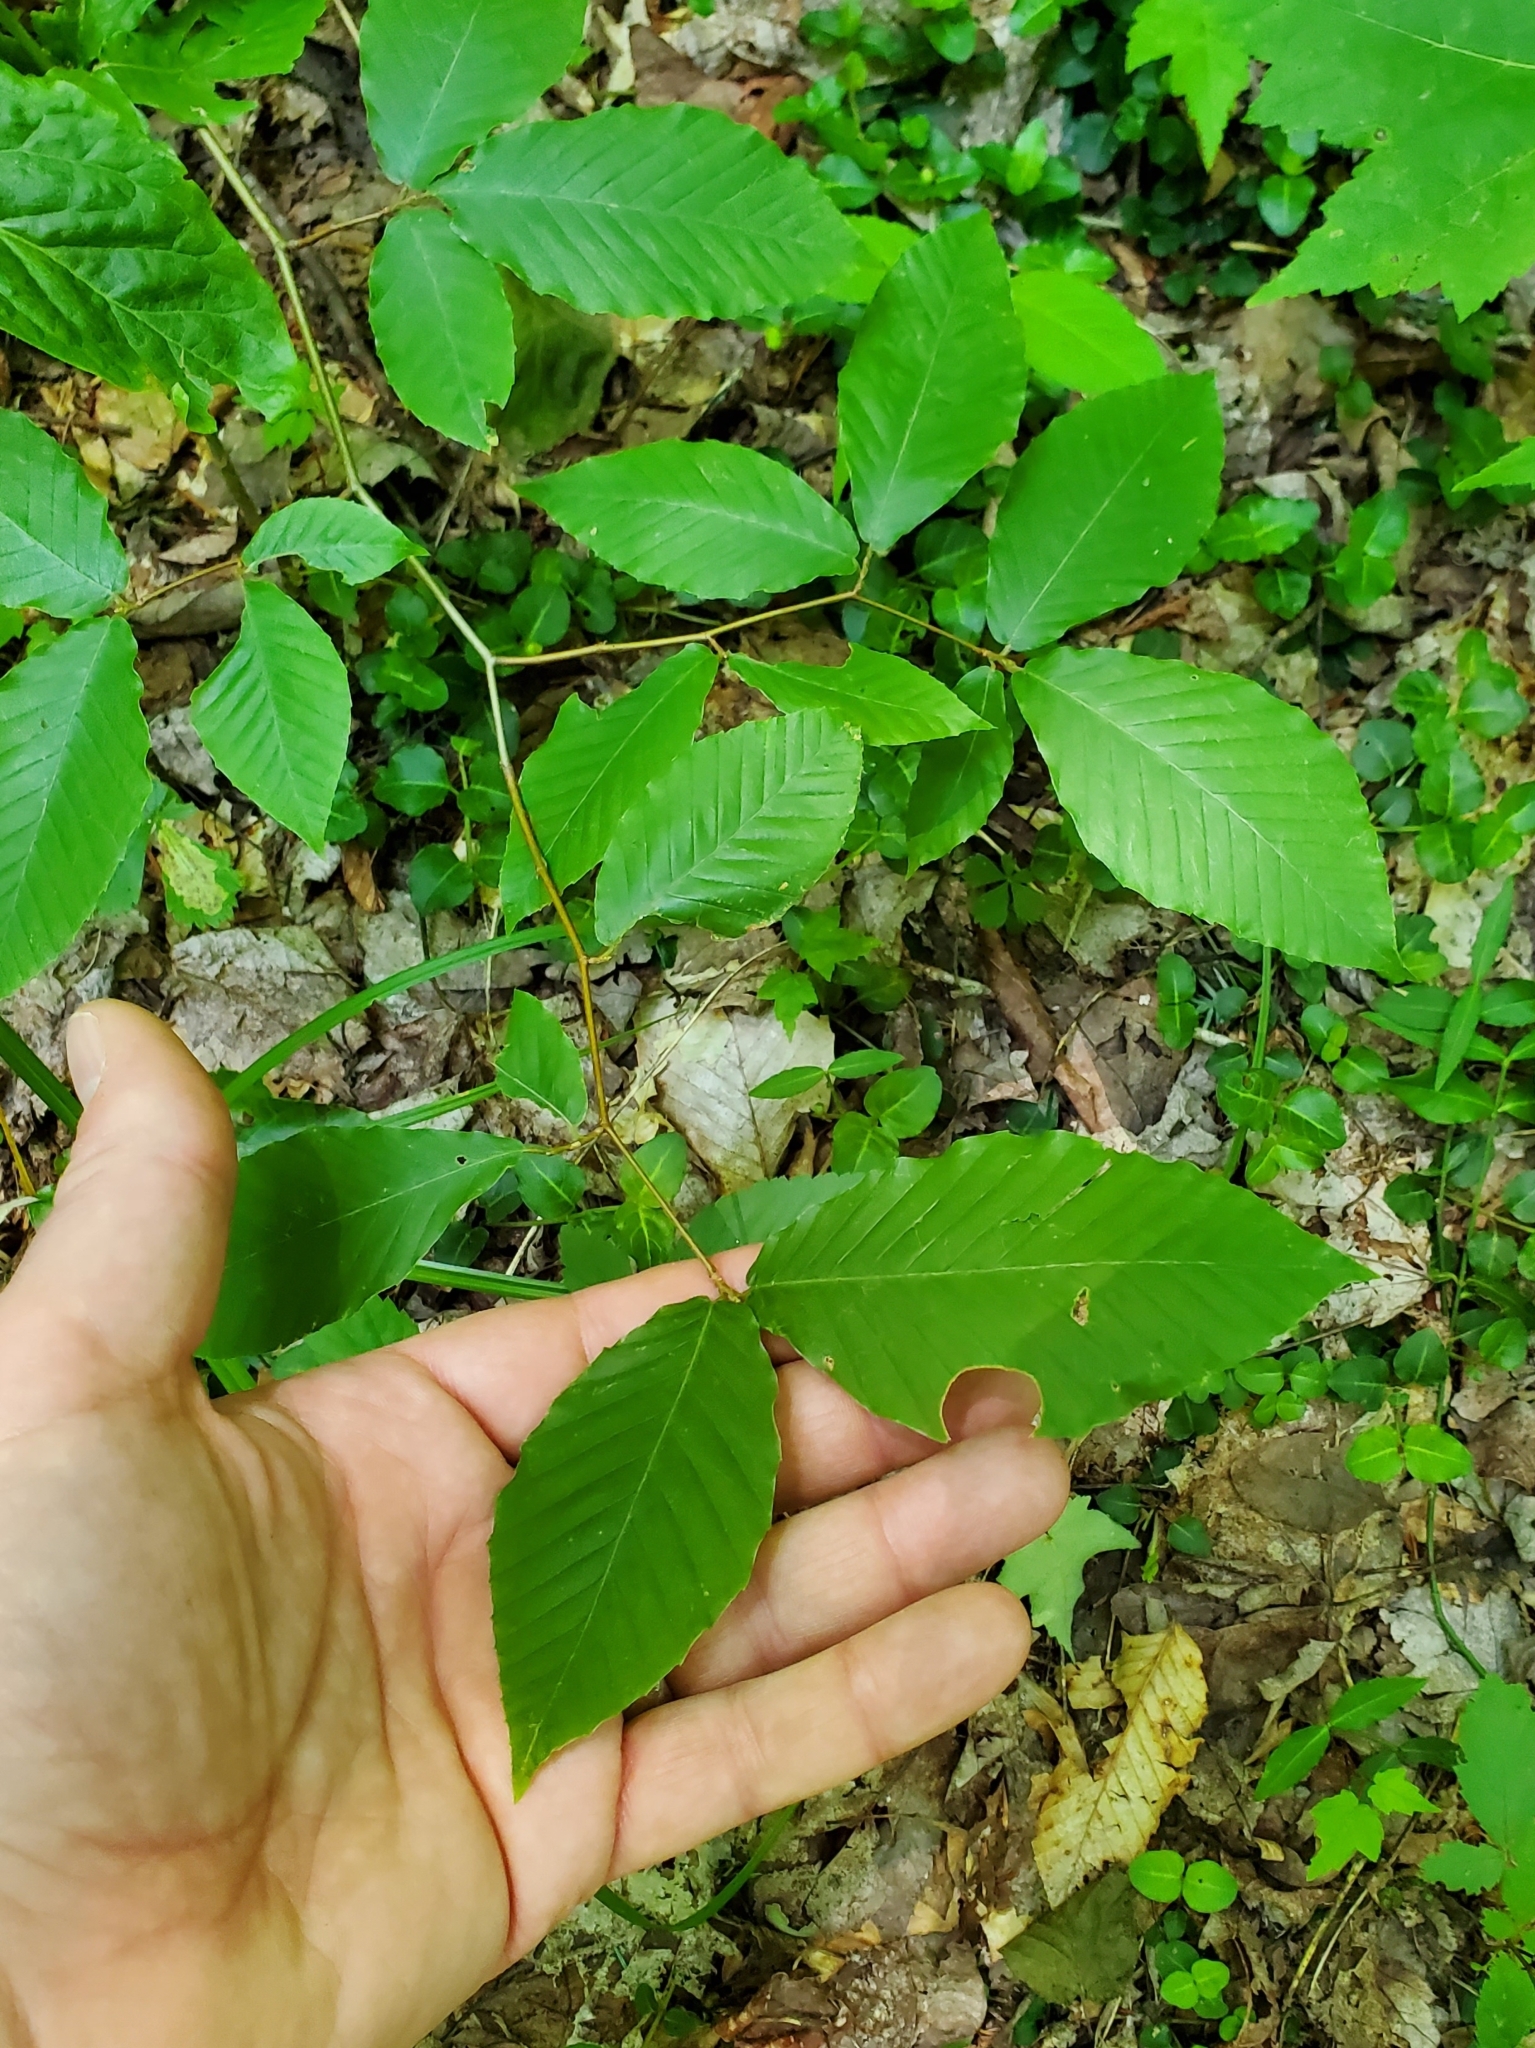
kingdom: Plantae
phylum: Tracheophyta
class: Magnoliopsida
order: Fagales
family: Fagaceae
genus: Fagus
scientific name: Fagus grandifolia
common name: American beech
